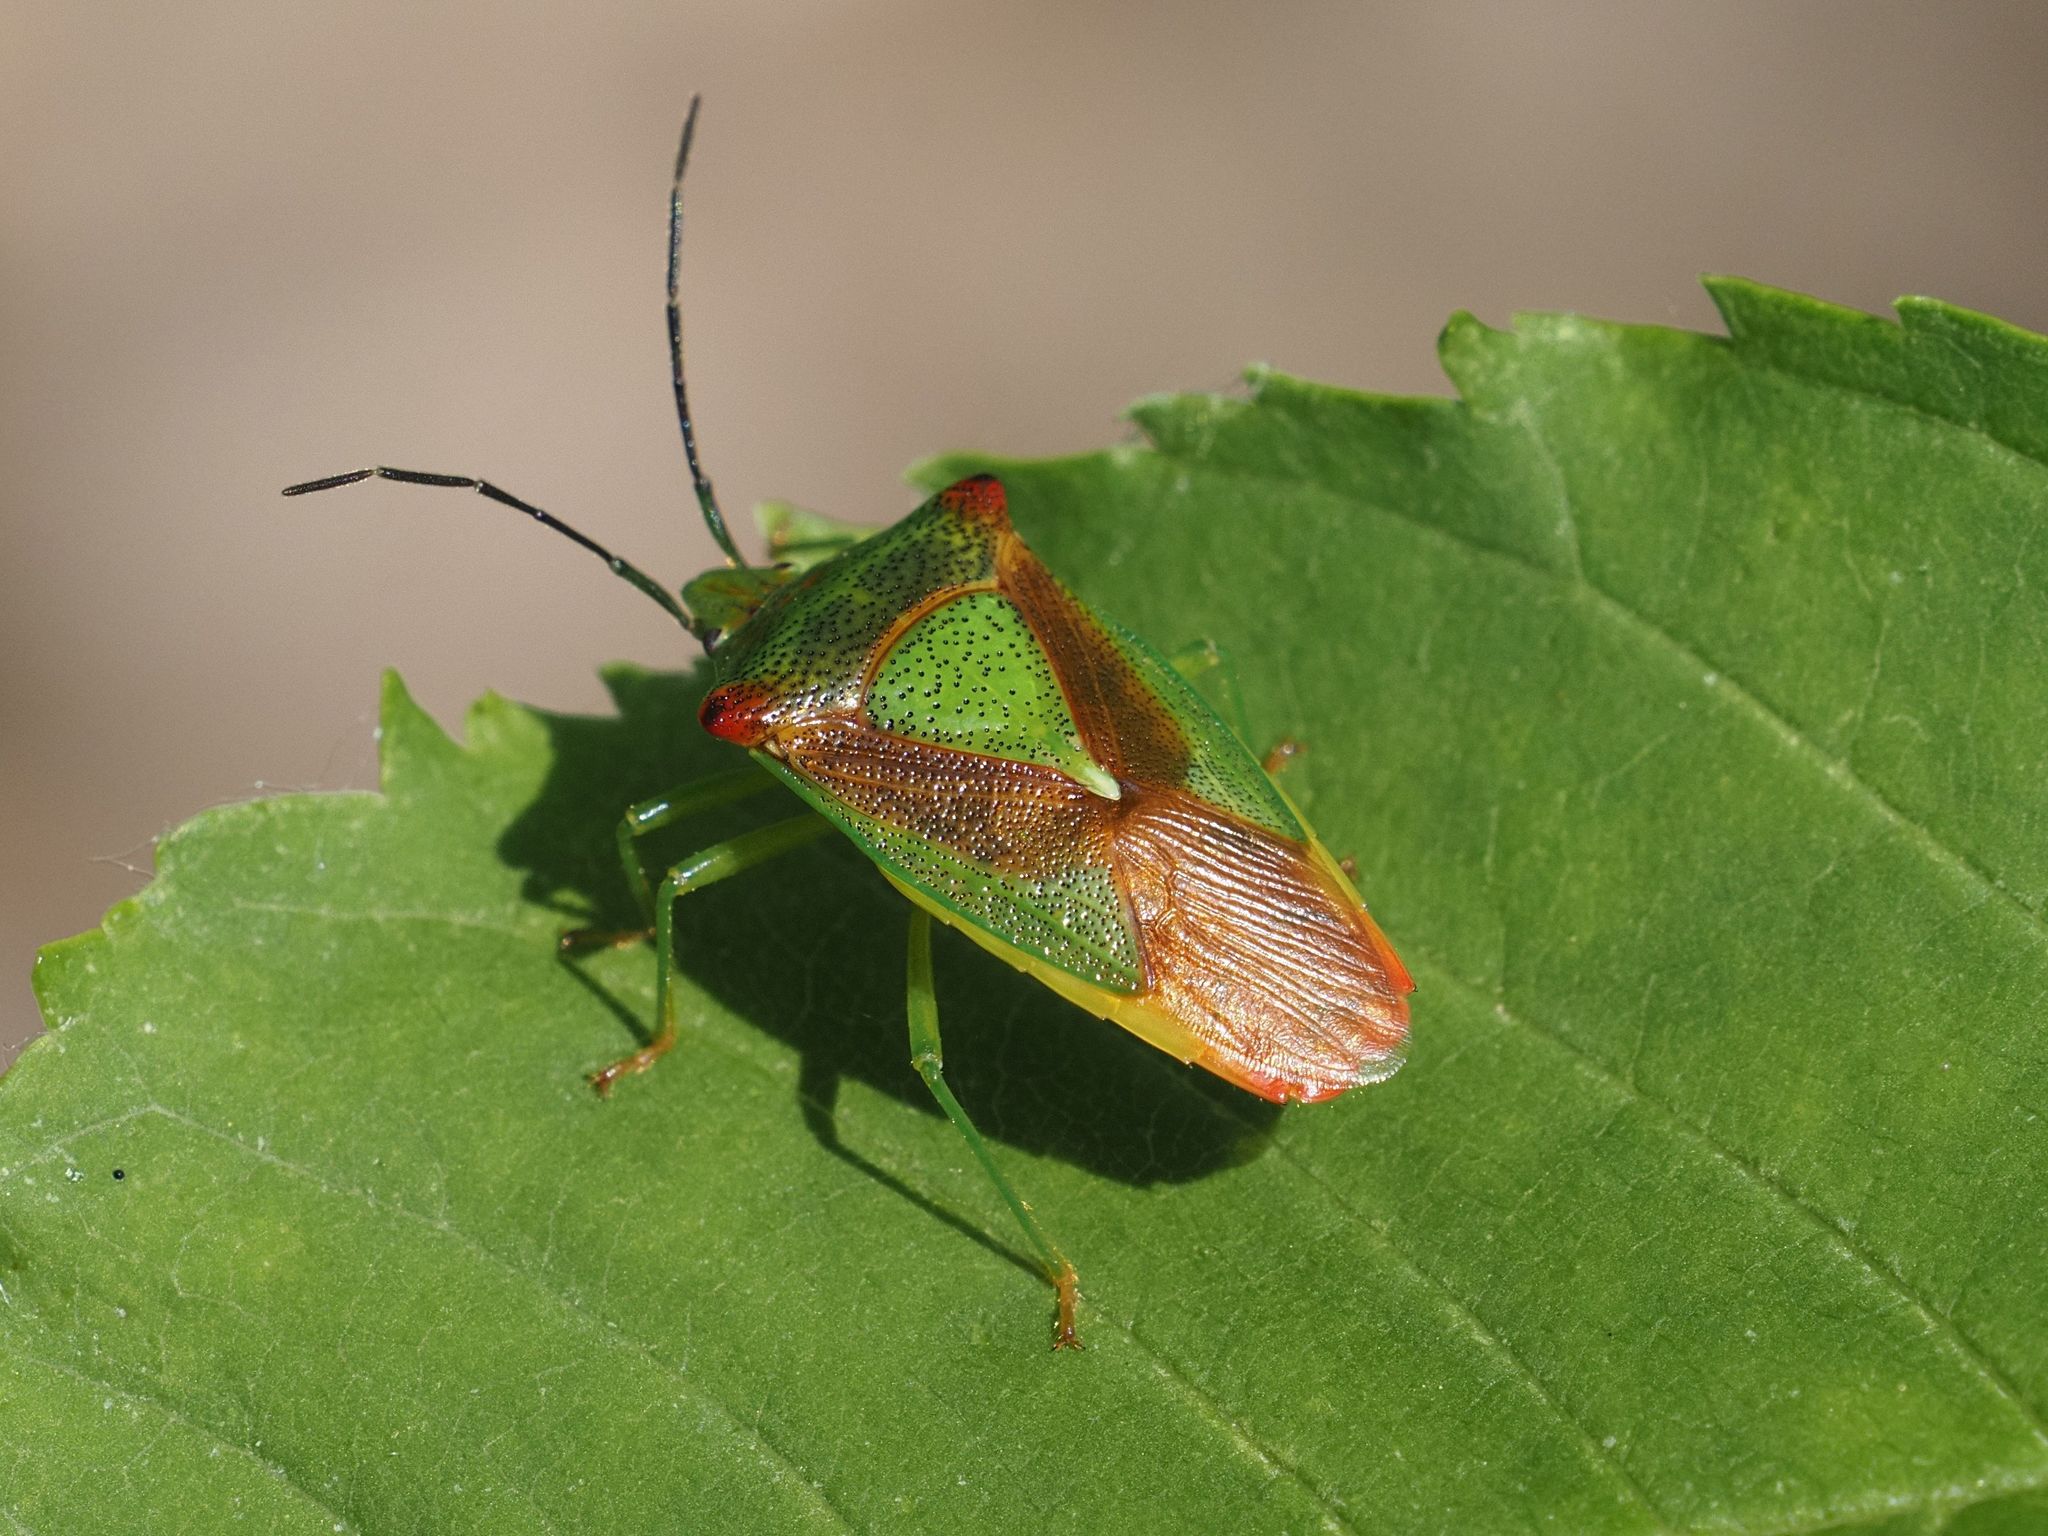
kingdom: Animalia
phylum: Arthropoda
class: Insecta
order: Hemiptera
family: Acanthosomatidae
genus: Acanthosoma
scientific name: Acanthosoma haemorrhoidale
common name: Hawthorn shieldbug
